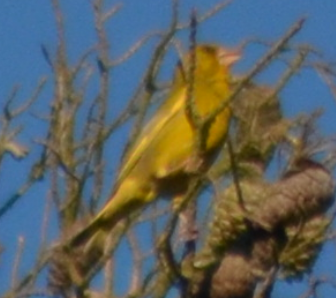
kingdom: Plantae
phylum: Tracheophyta
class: Liliopsida
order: Poales
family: Poaceae
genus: Chloris
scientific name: Chloris chloris
